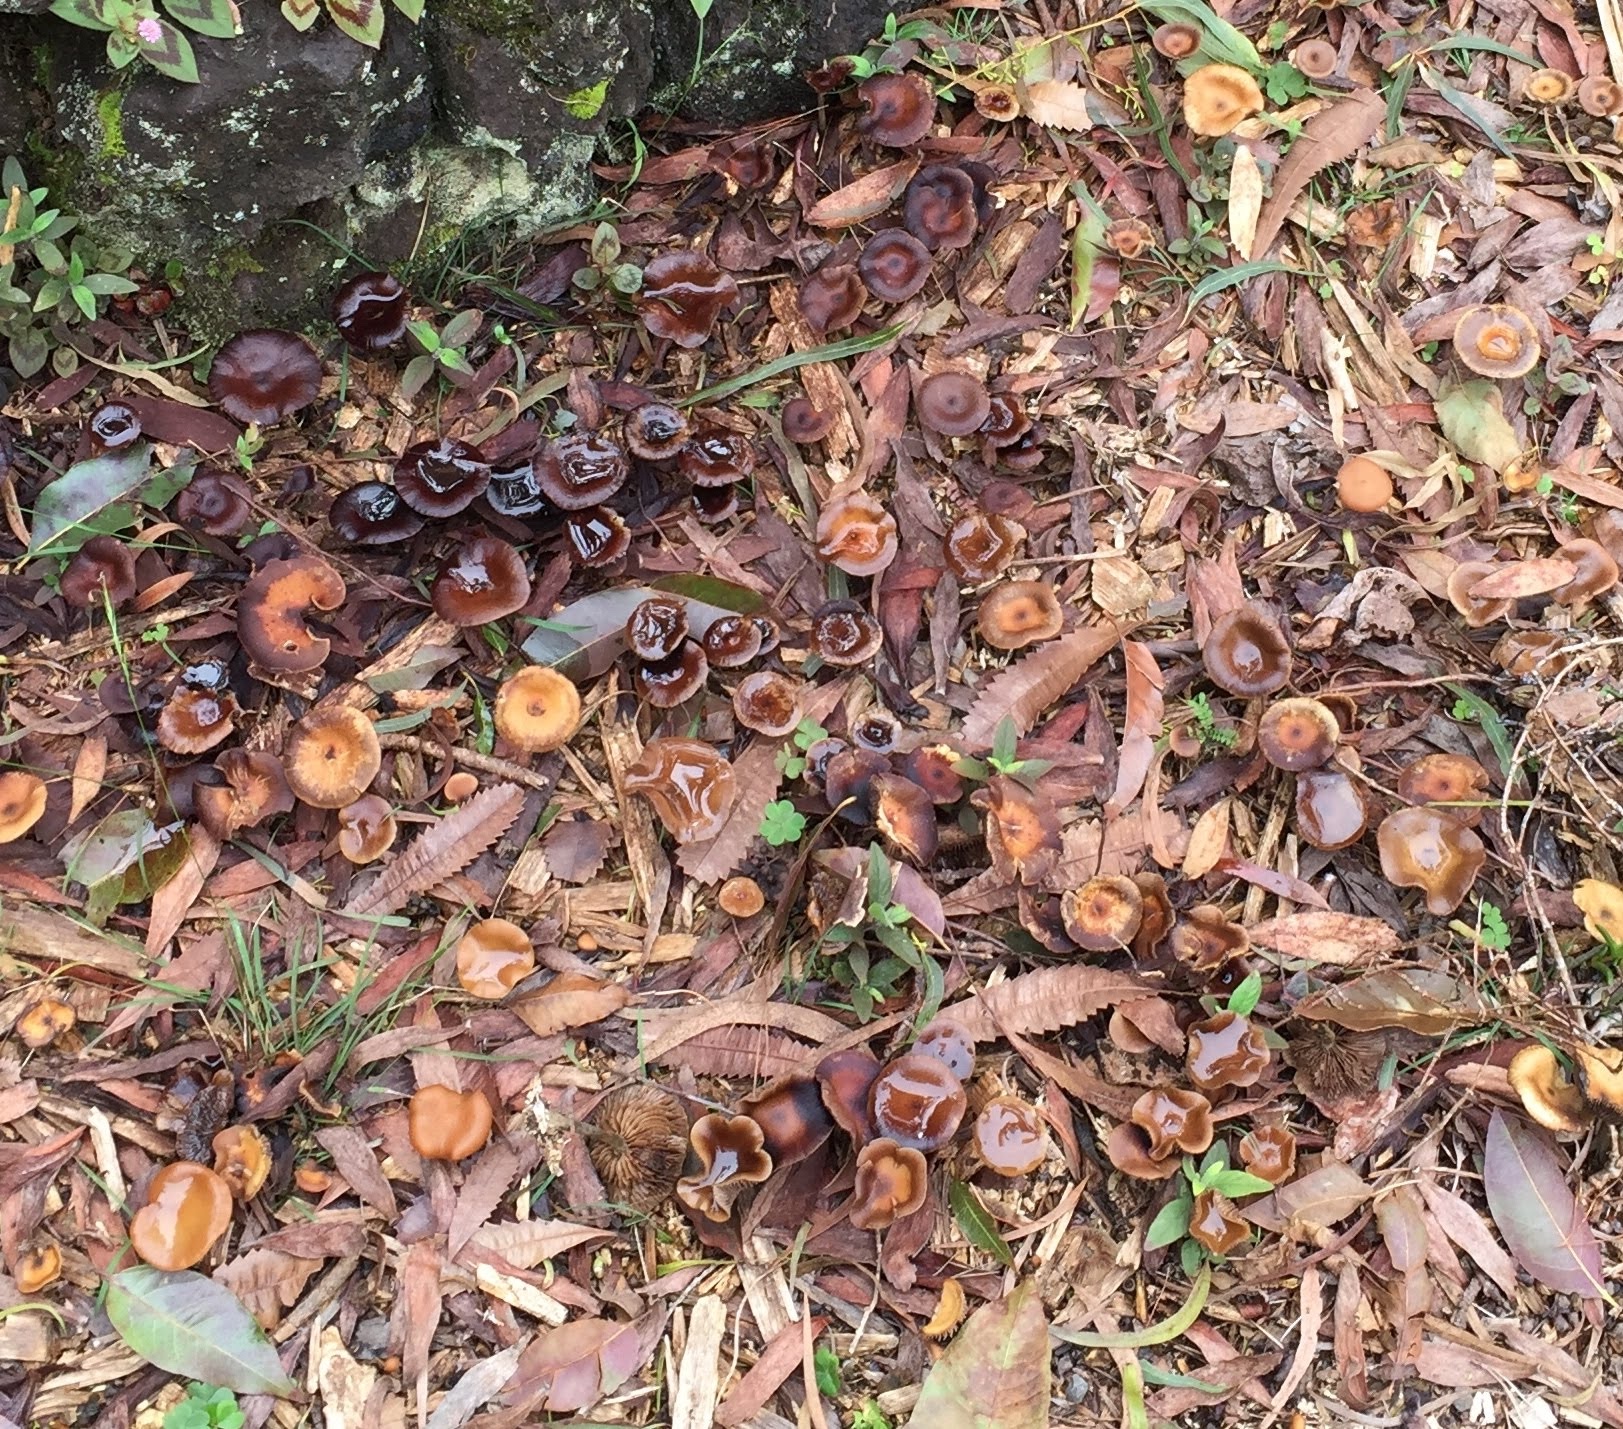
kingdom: Fungi
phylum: Basidiomycota
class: Agaricomycetes
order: Agaricales
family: Hymenogastraceae
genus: Psilocybe
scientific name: Psilocybe cyanescens
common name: Blueleg brownie
